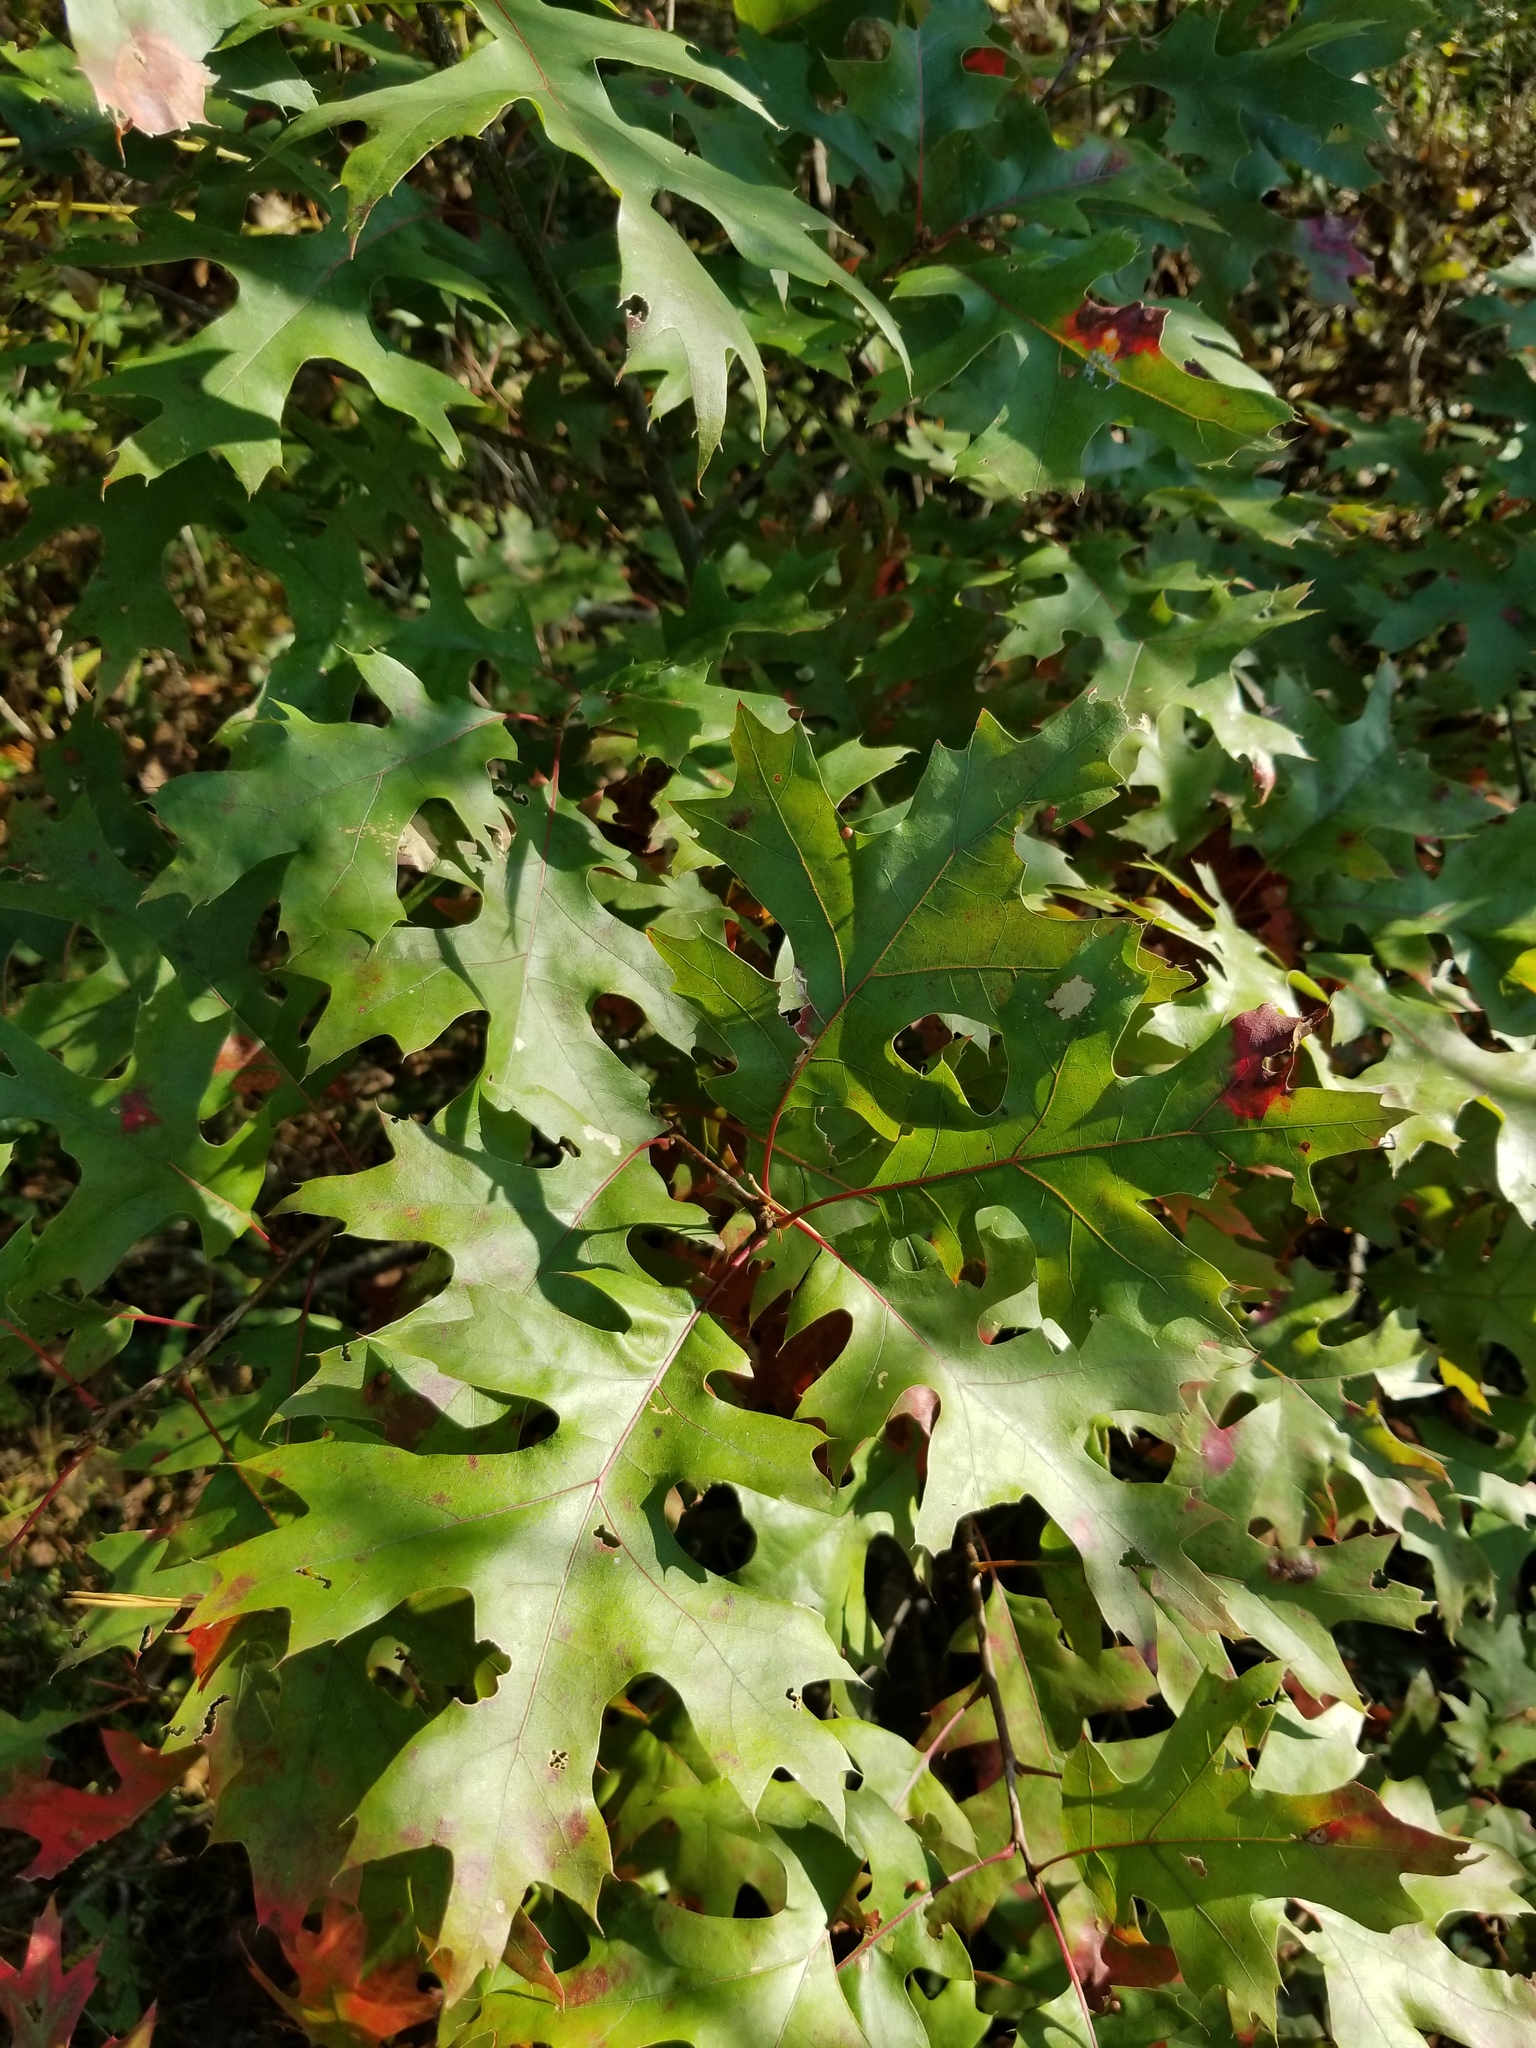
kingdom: Plantae
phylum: Tracheophyta
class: Magnoliopsida
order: Fagales
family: Fagaceae
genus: Quercus
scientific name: Quercus coccinea
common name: Scarlet oak
